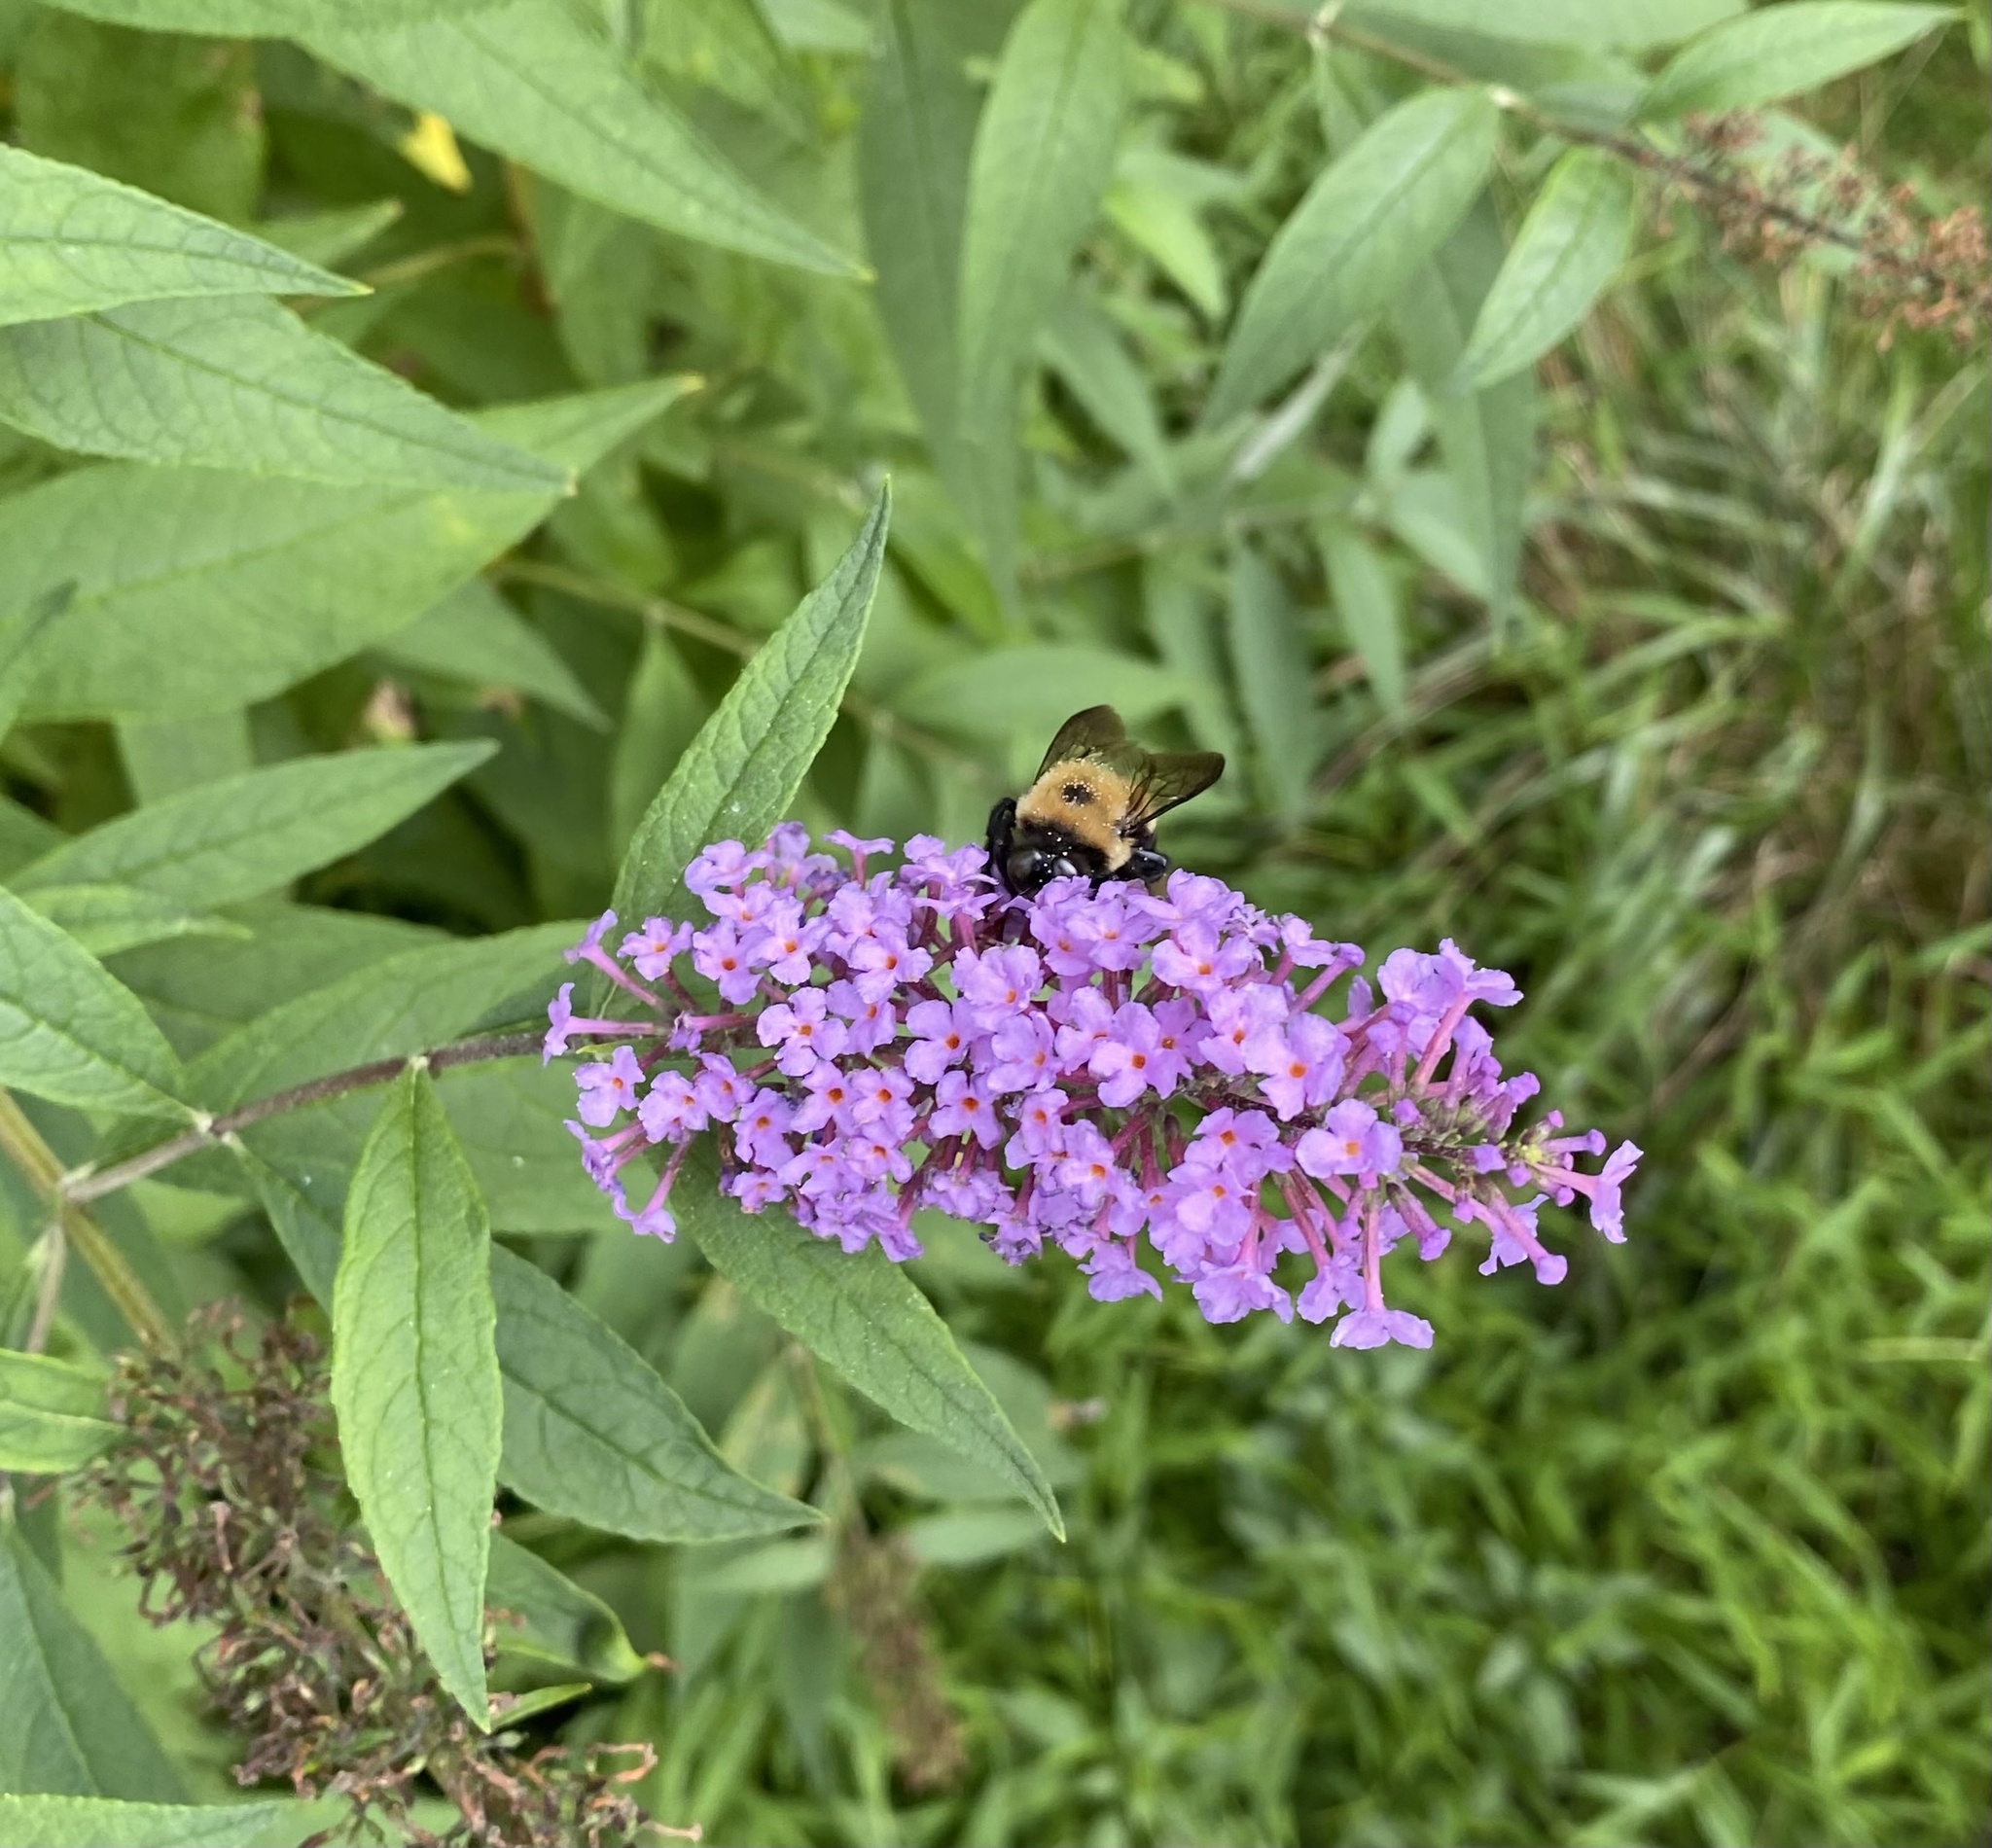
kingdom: Animalia
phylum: Arthropoda
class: Insecta
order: Hymenoptera
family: Apidae
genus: Xylocopa
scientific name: Xylocopa virginica
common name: Carpenter bee
